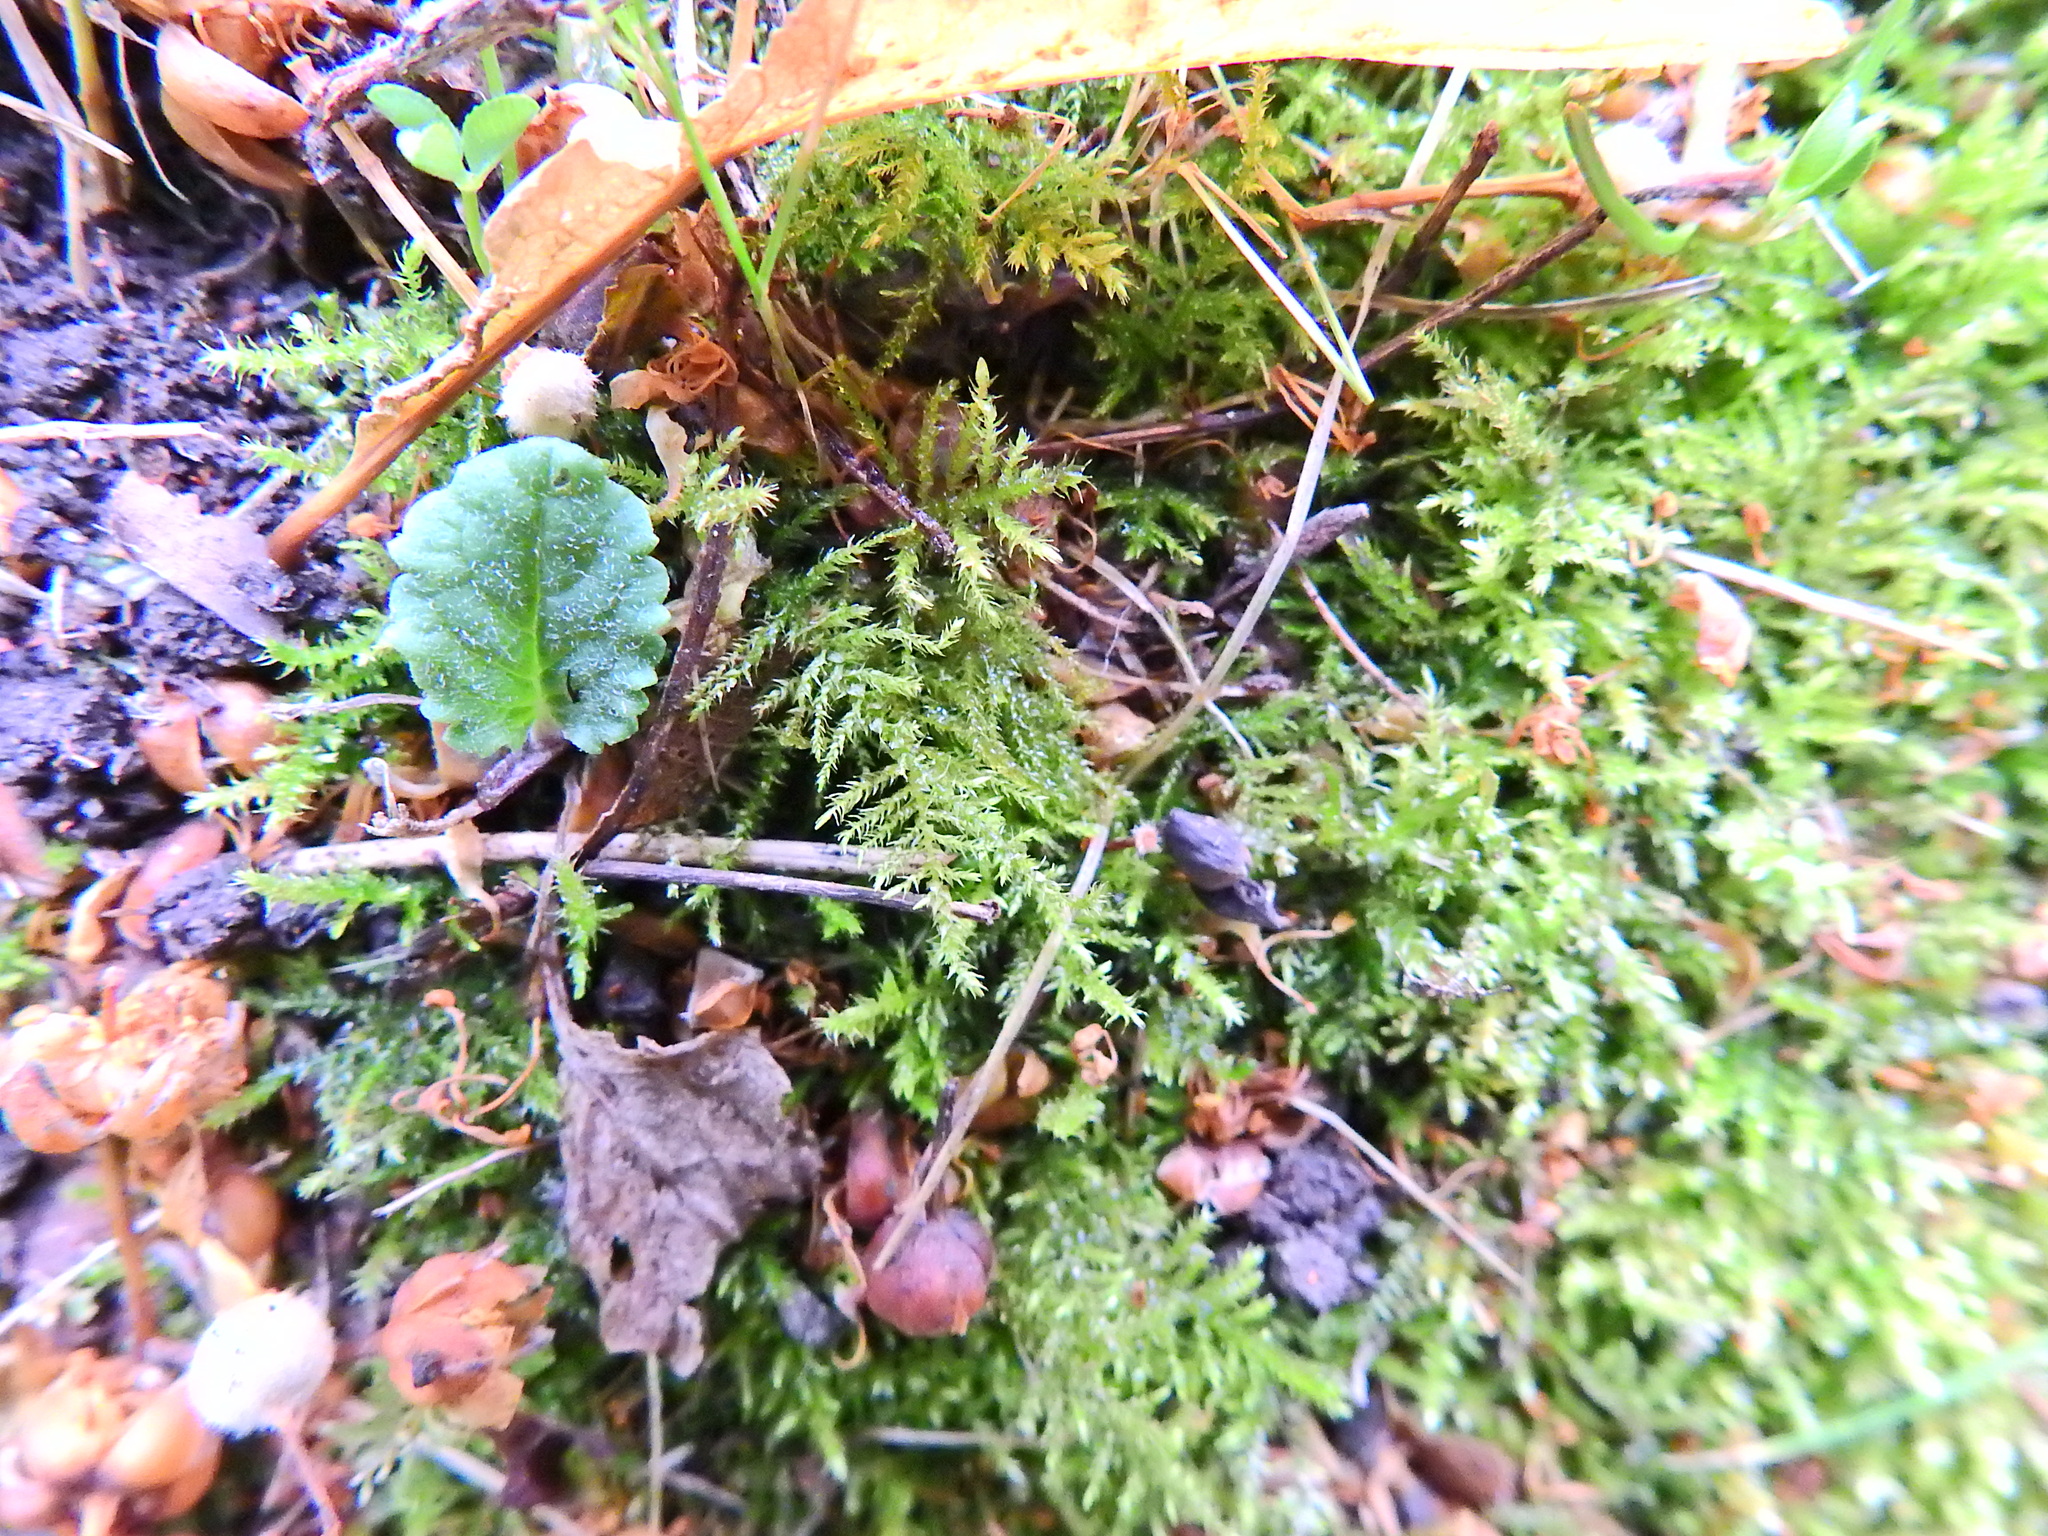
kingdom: Plantae
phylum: Bryophyta
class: Bryopsida
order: Hypnales
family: Brachytheciaceae
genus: Kindbergia
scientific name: Kindbergia praelonga
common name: Slender beaked moss
